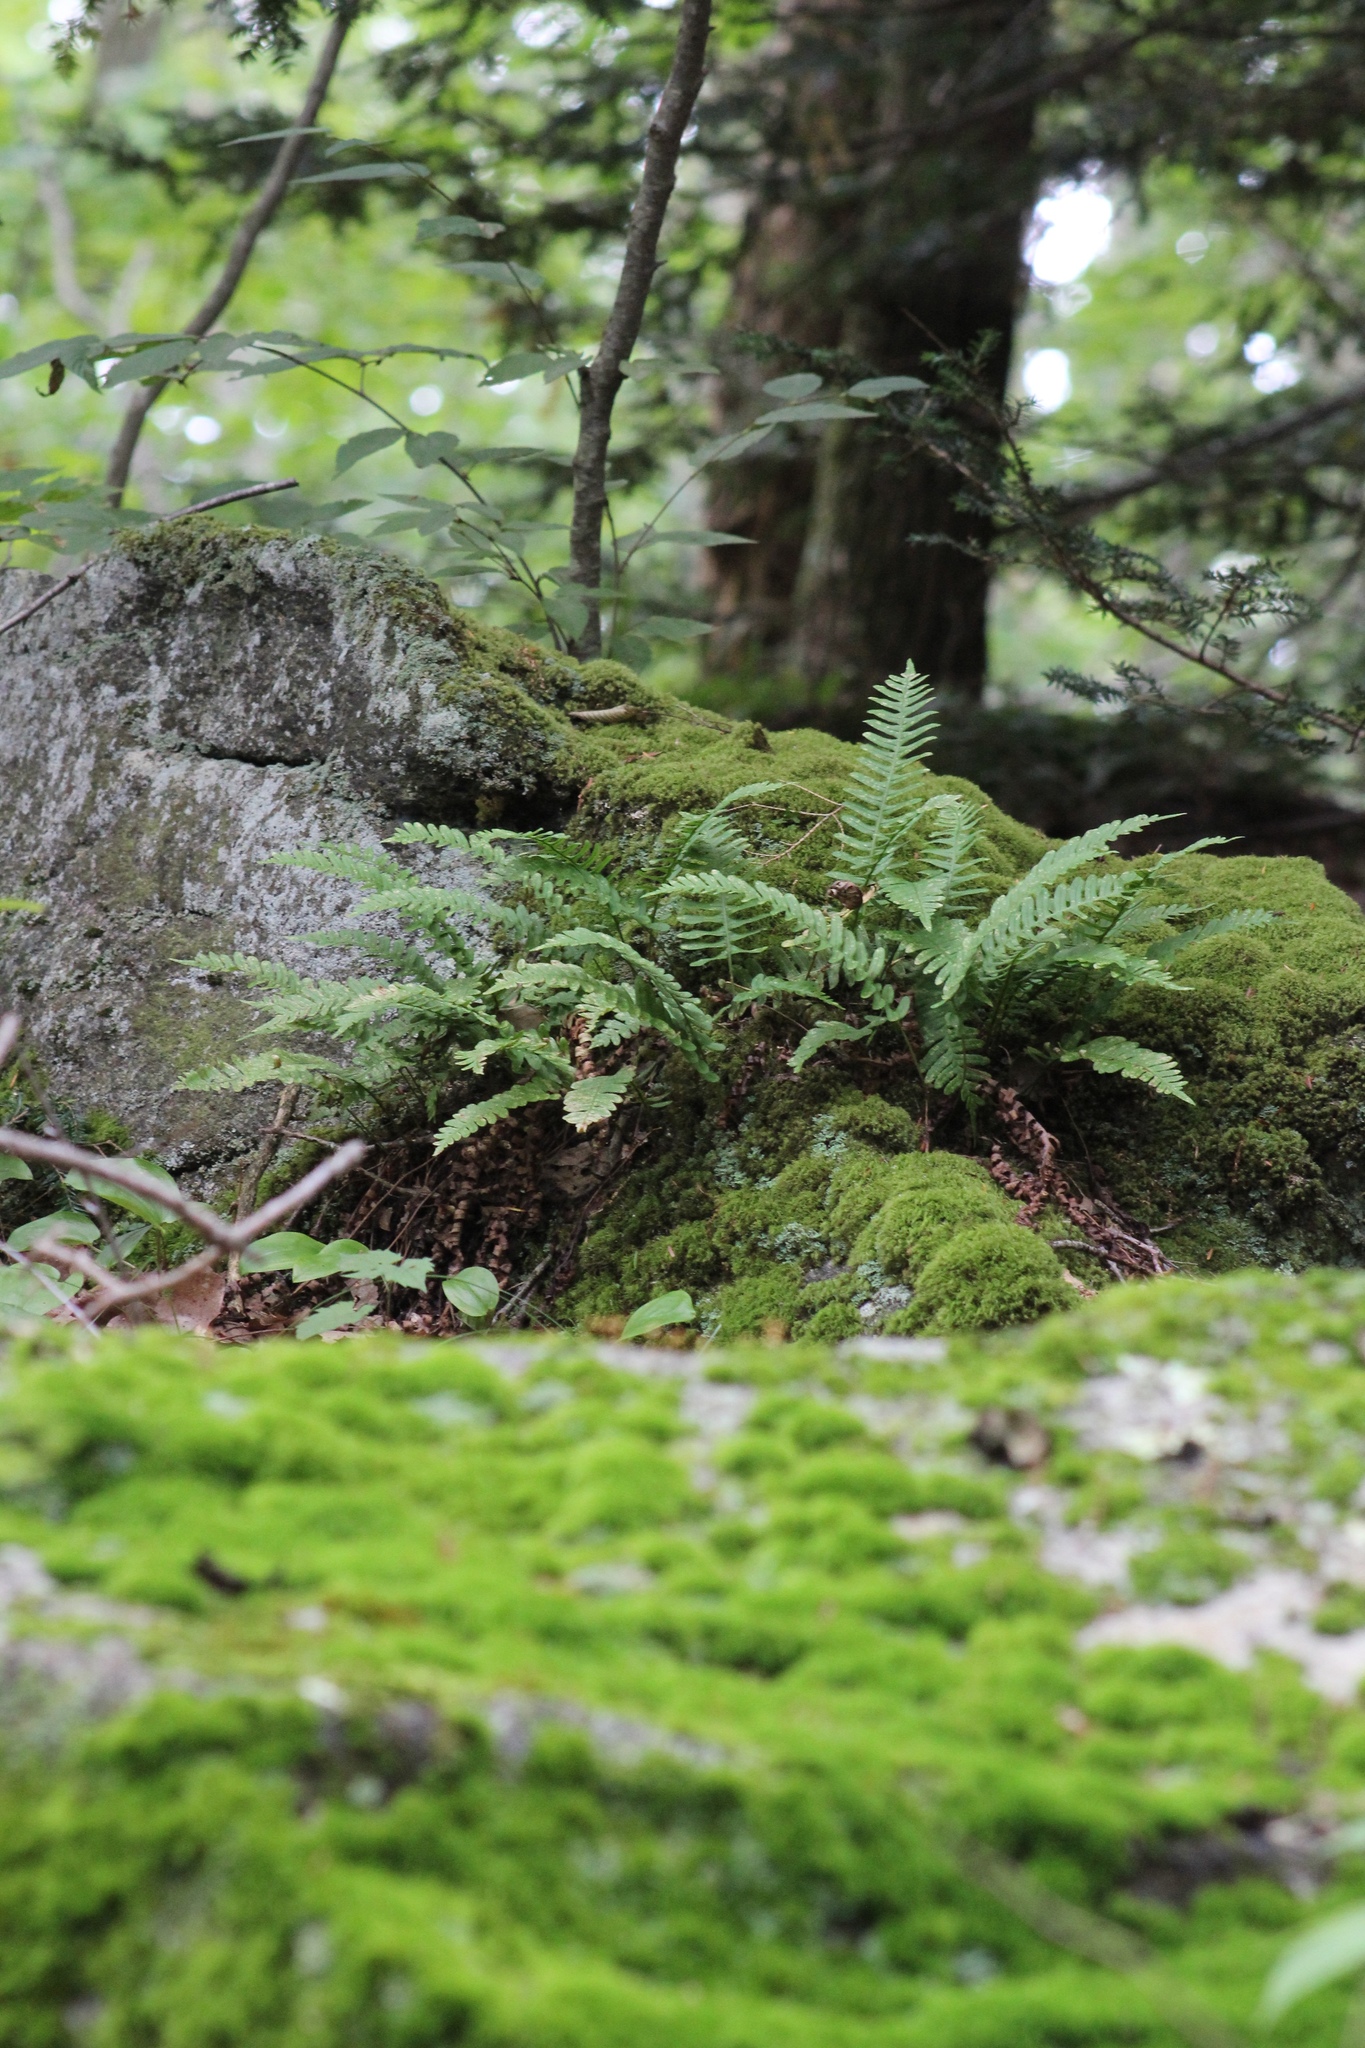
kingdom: Plantae
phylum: Tracheophyta
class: Polypodiopsida
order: Polypodiales
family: Polypodiaceae
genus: Polypodium
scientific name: Polypodium virginianum
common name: American wall fern
